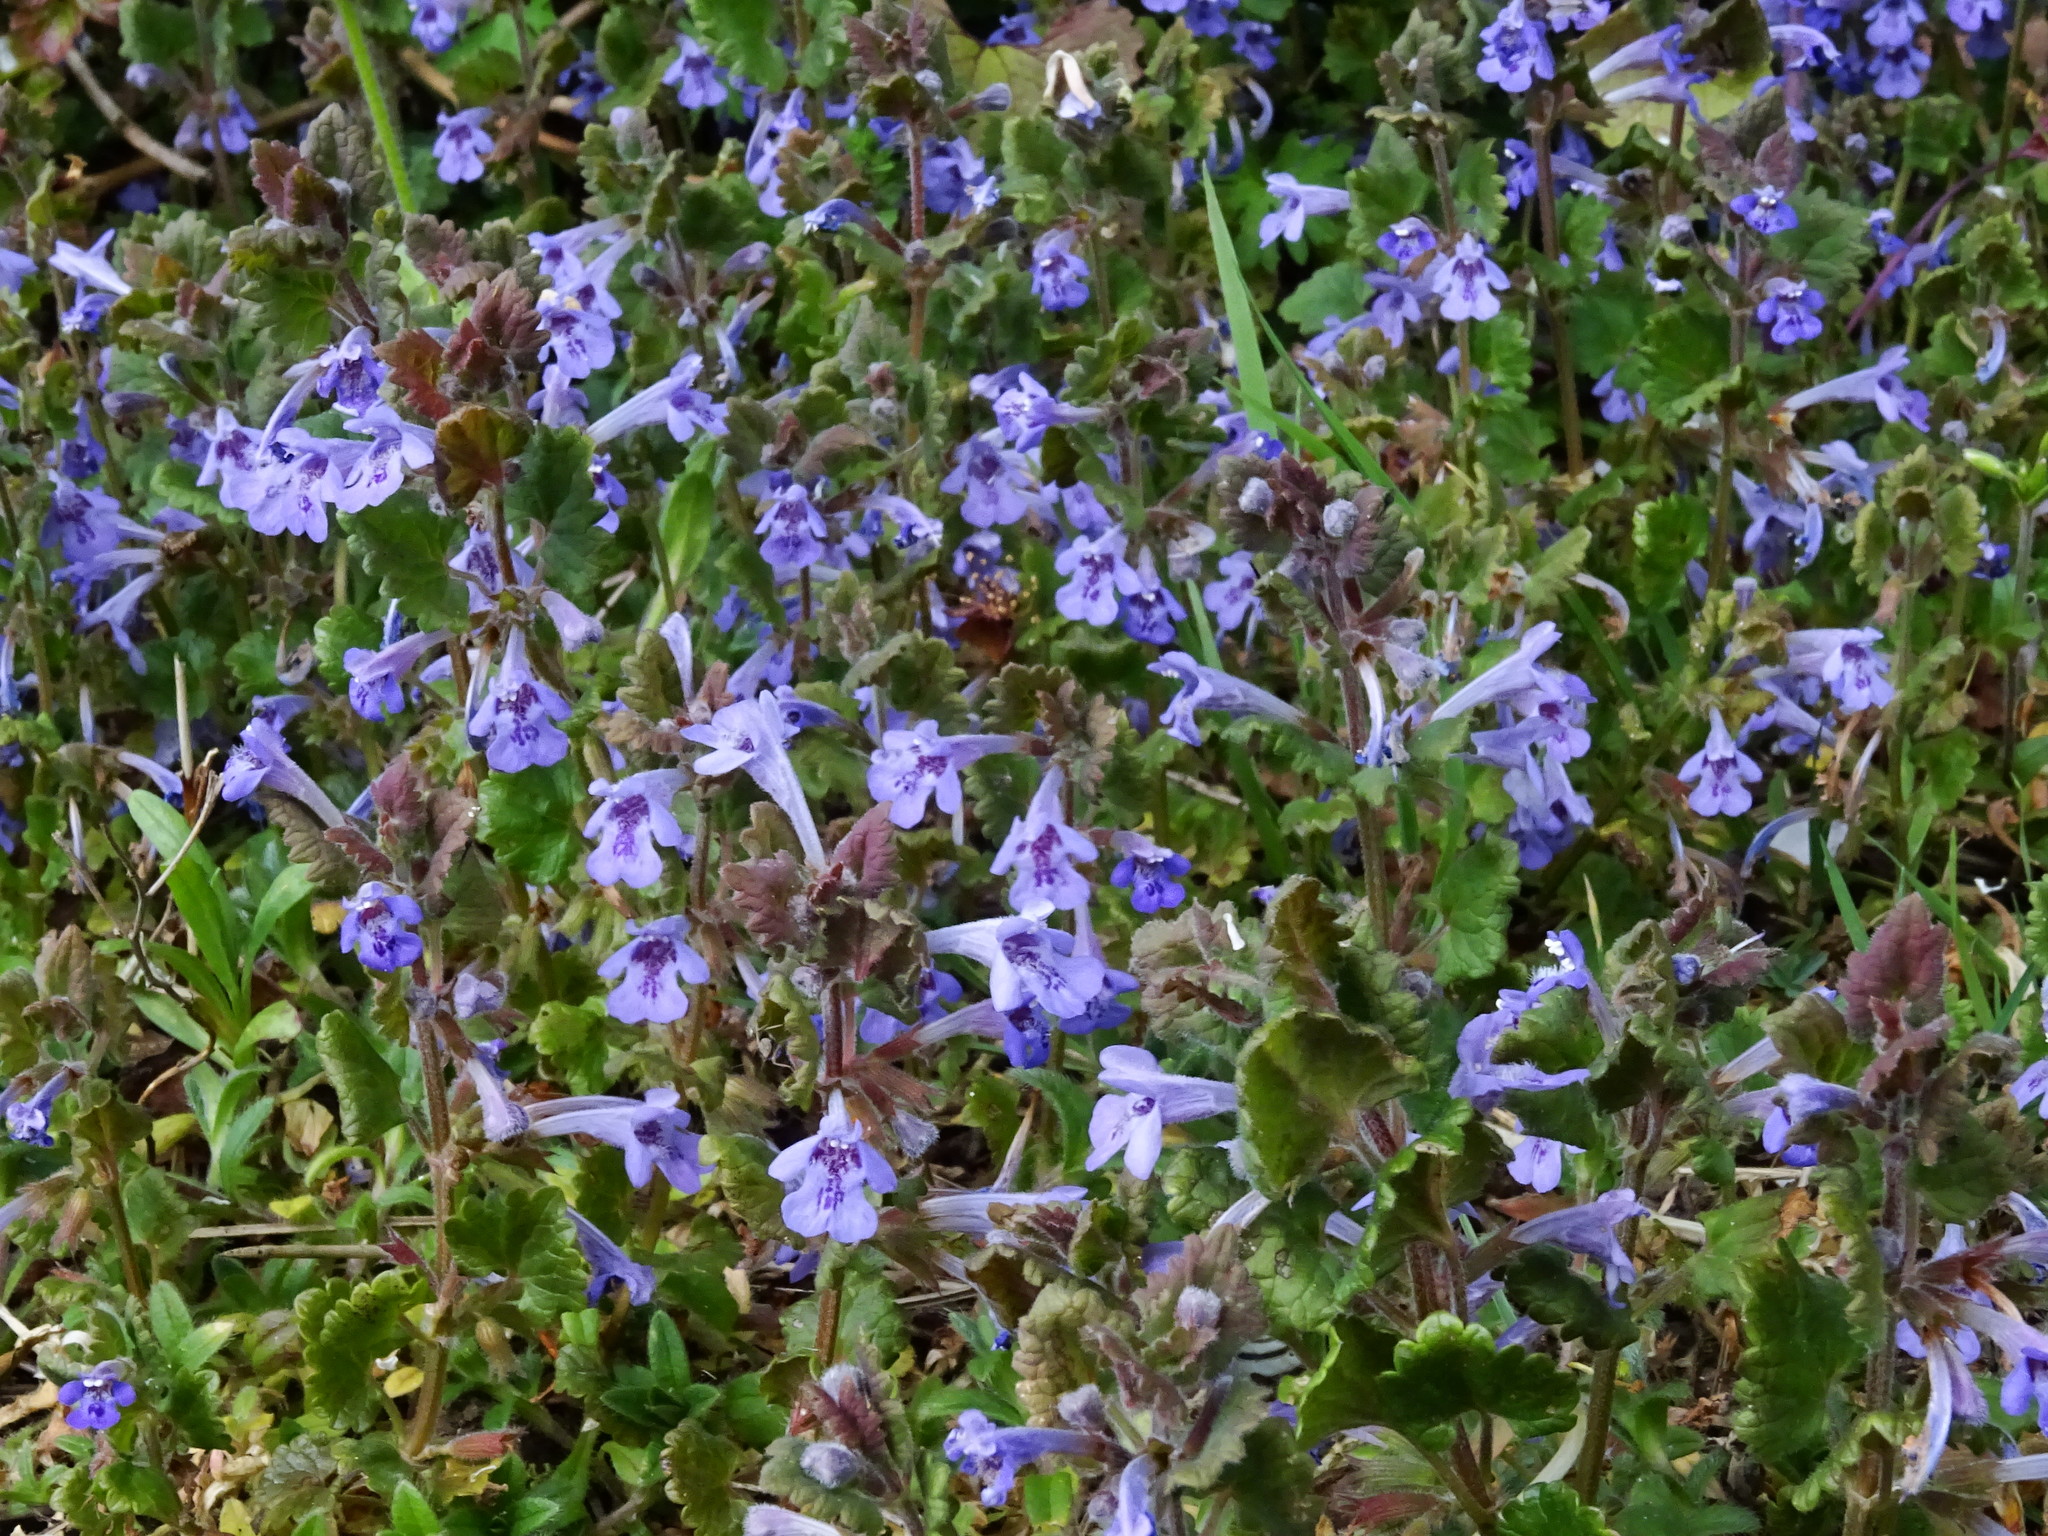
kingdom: Plantae
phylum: Tracheophyta
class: Magnoliopsida
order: Lamiales
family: Lamiaceae
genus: Glechoma
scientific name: Glechoma hederacea
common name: Ground ivy
